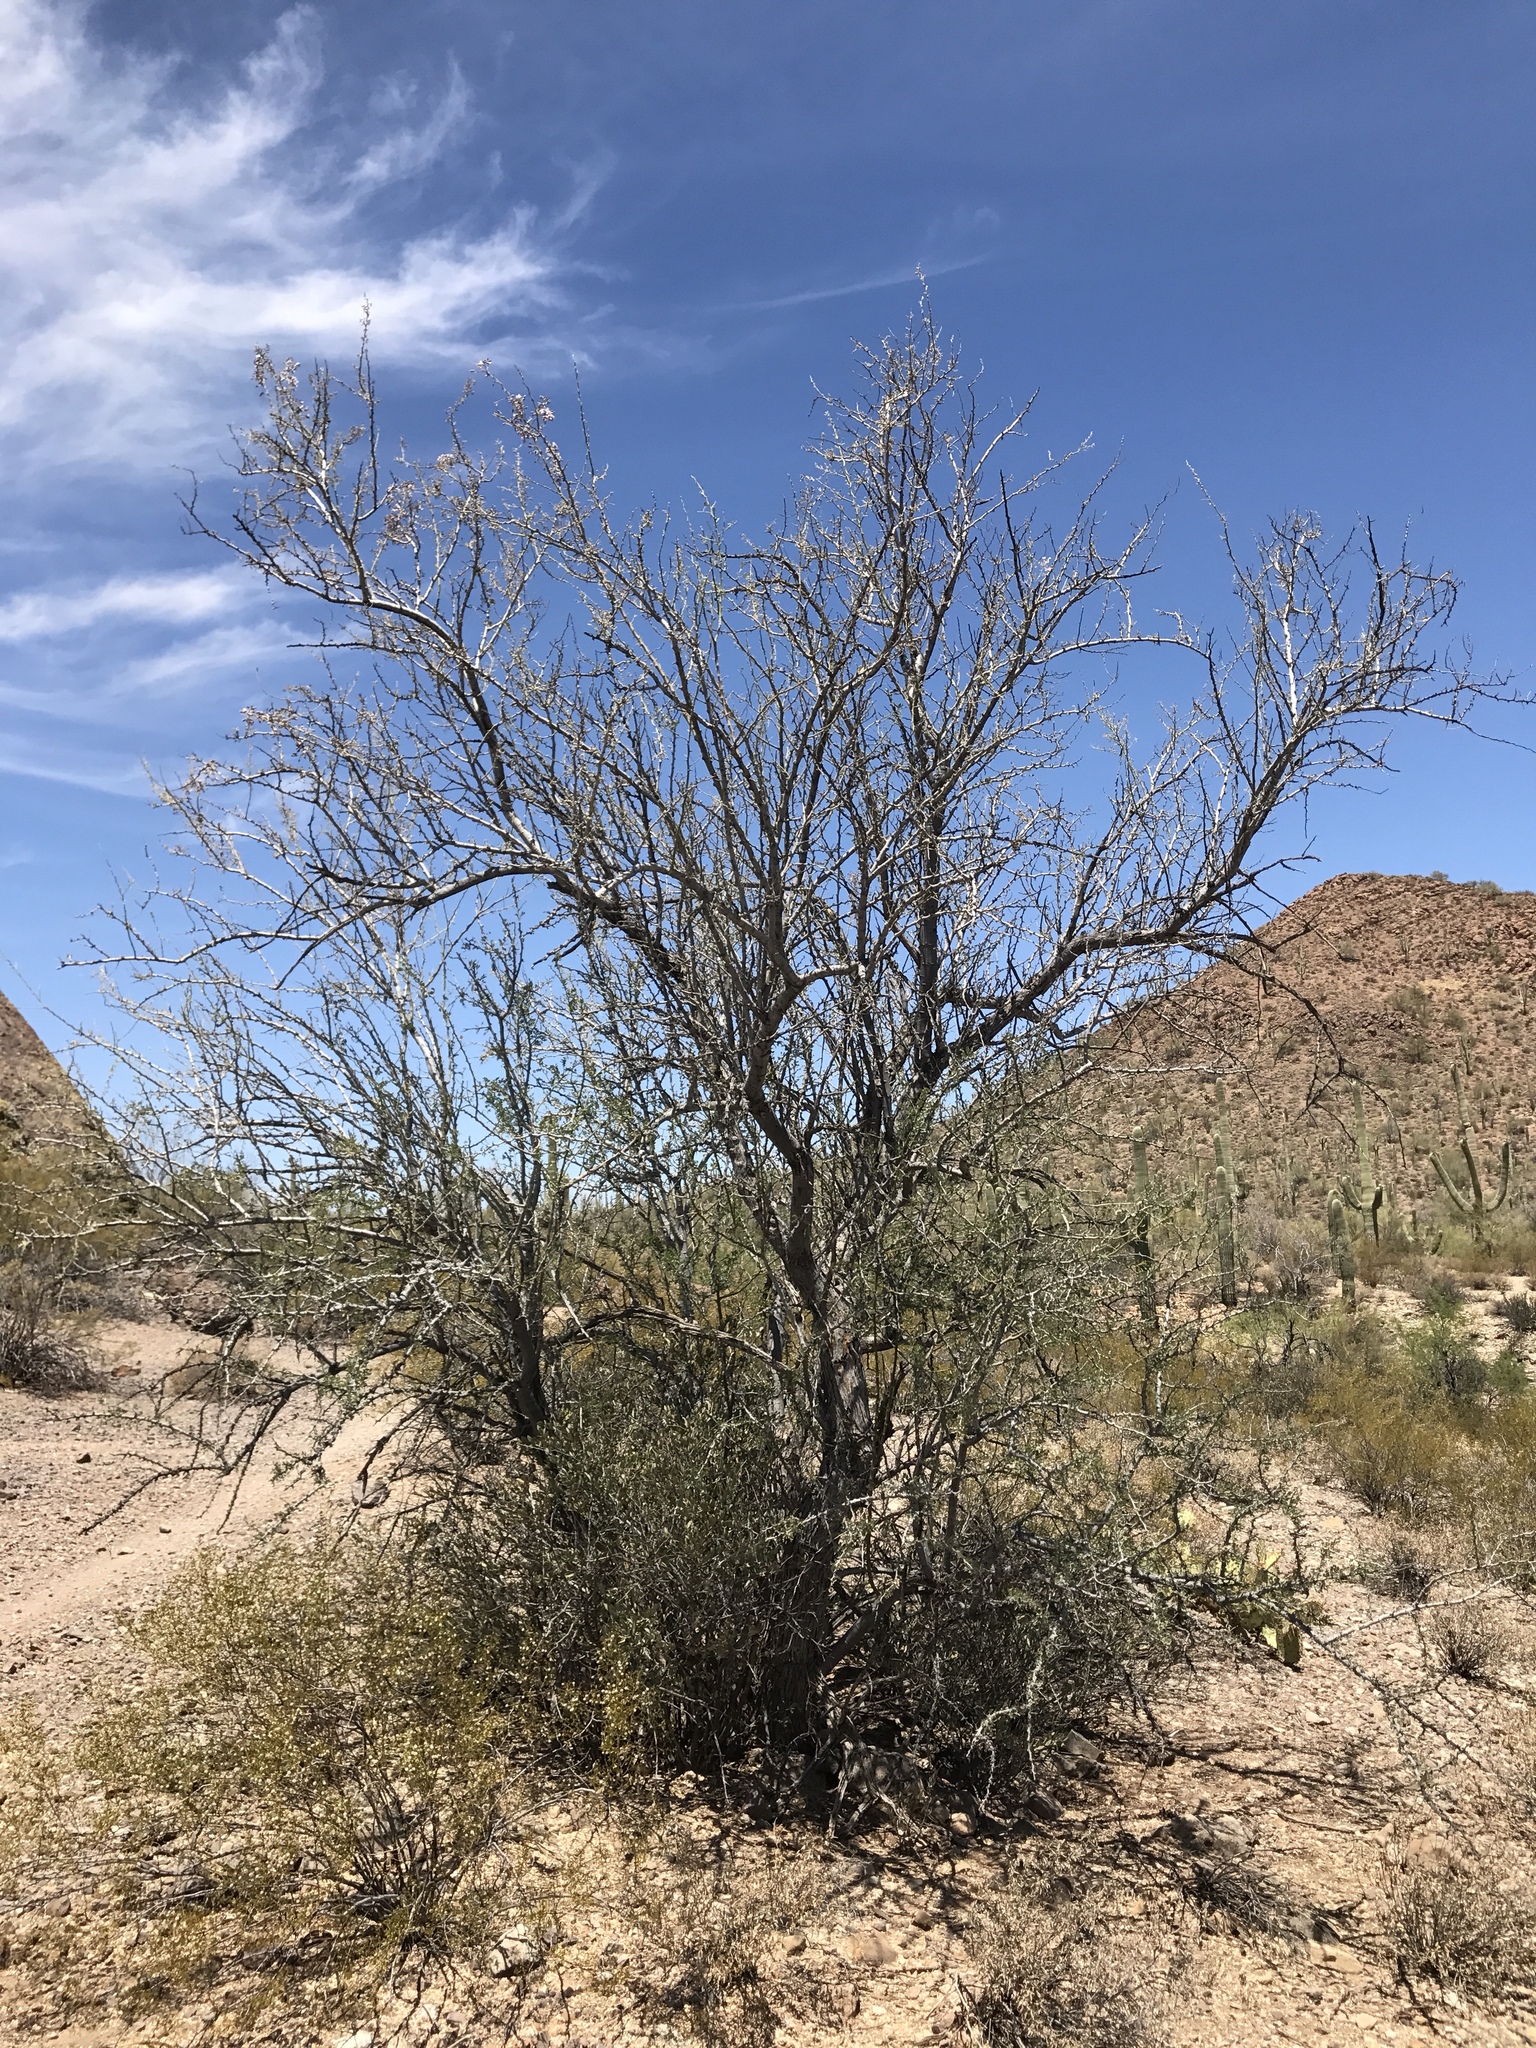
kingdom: Plantae
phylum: Tracheophyta
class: Magnoliopsida
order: Fabales
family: Fabaceae
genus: Olneya
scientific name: Olneya tesota
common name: Desert ironwood
